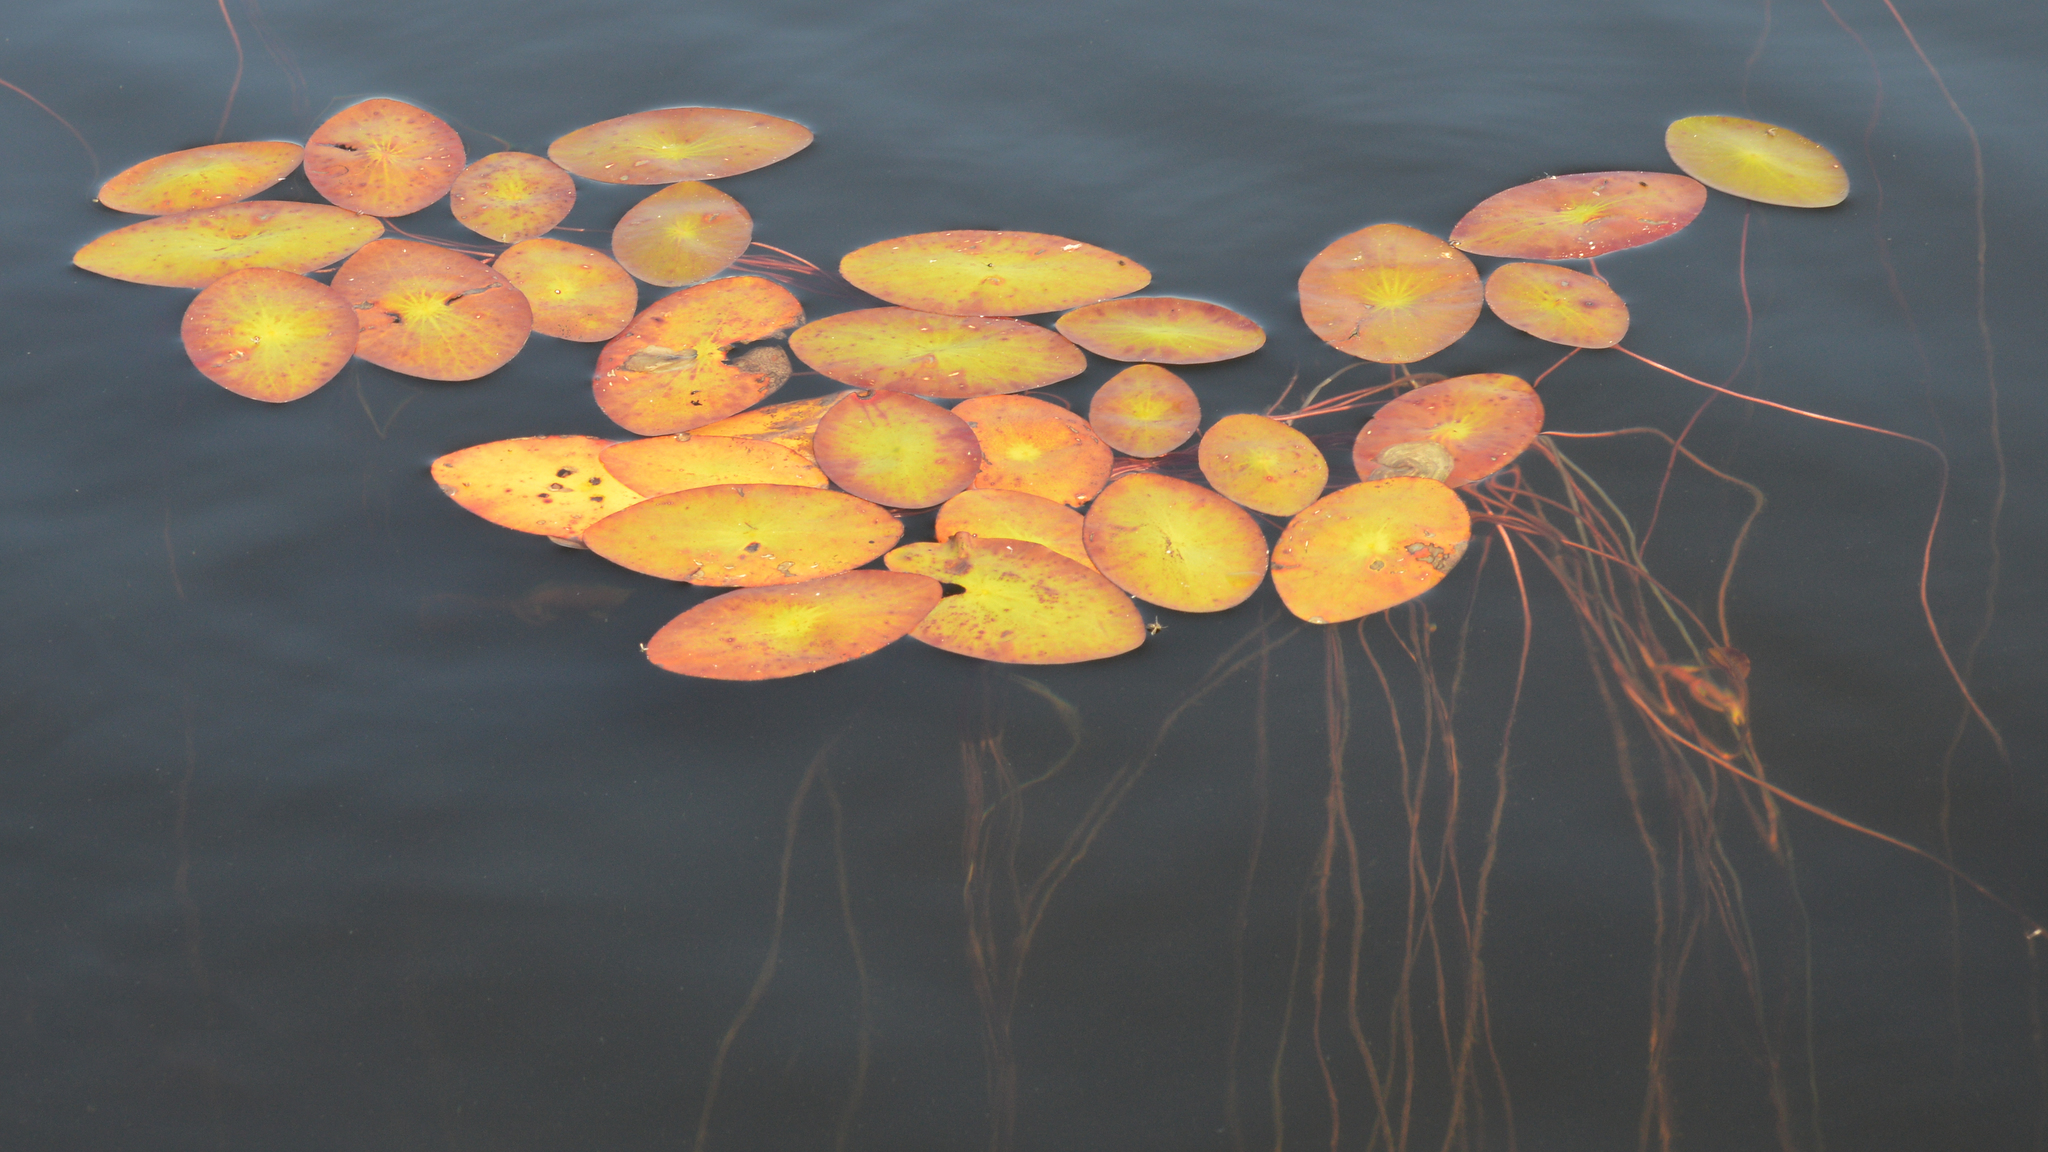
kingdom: Plantae
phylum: Tracheophyta
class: Magnoliopsida
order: Nymphaeales
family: Cabombaceae
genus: Brasenia
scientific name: Brasenia schreberi
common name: Water-shield
